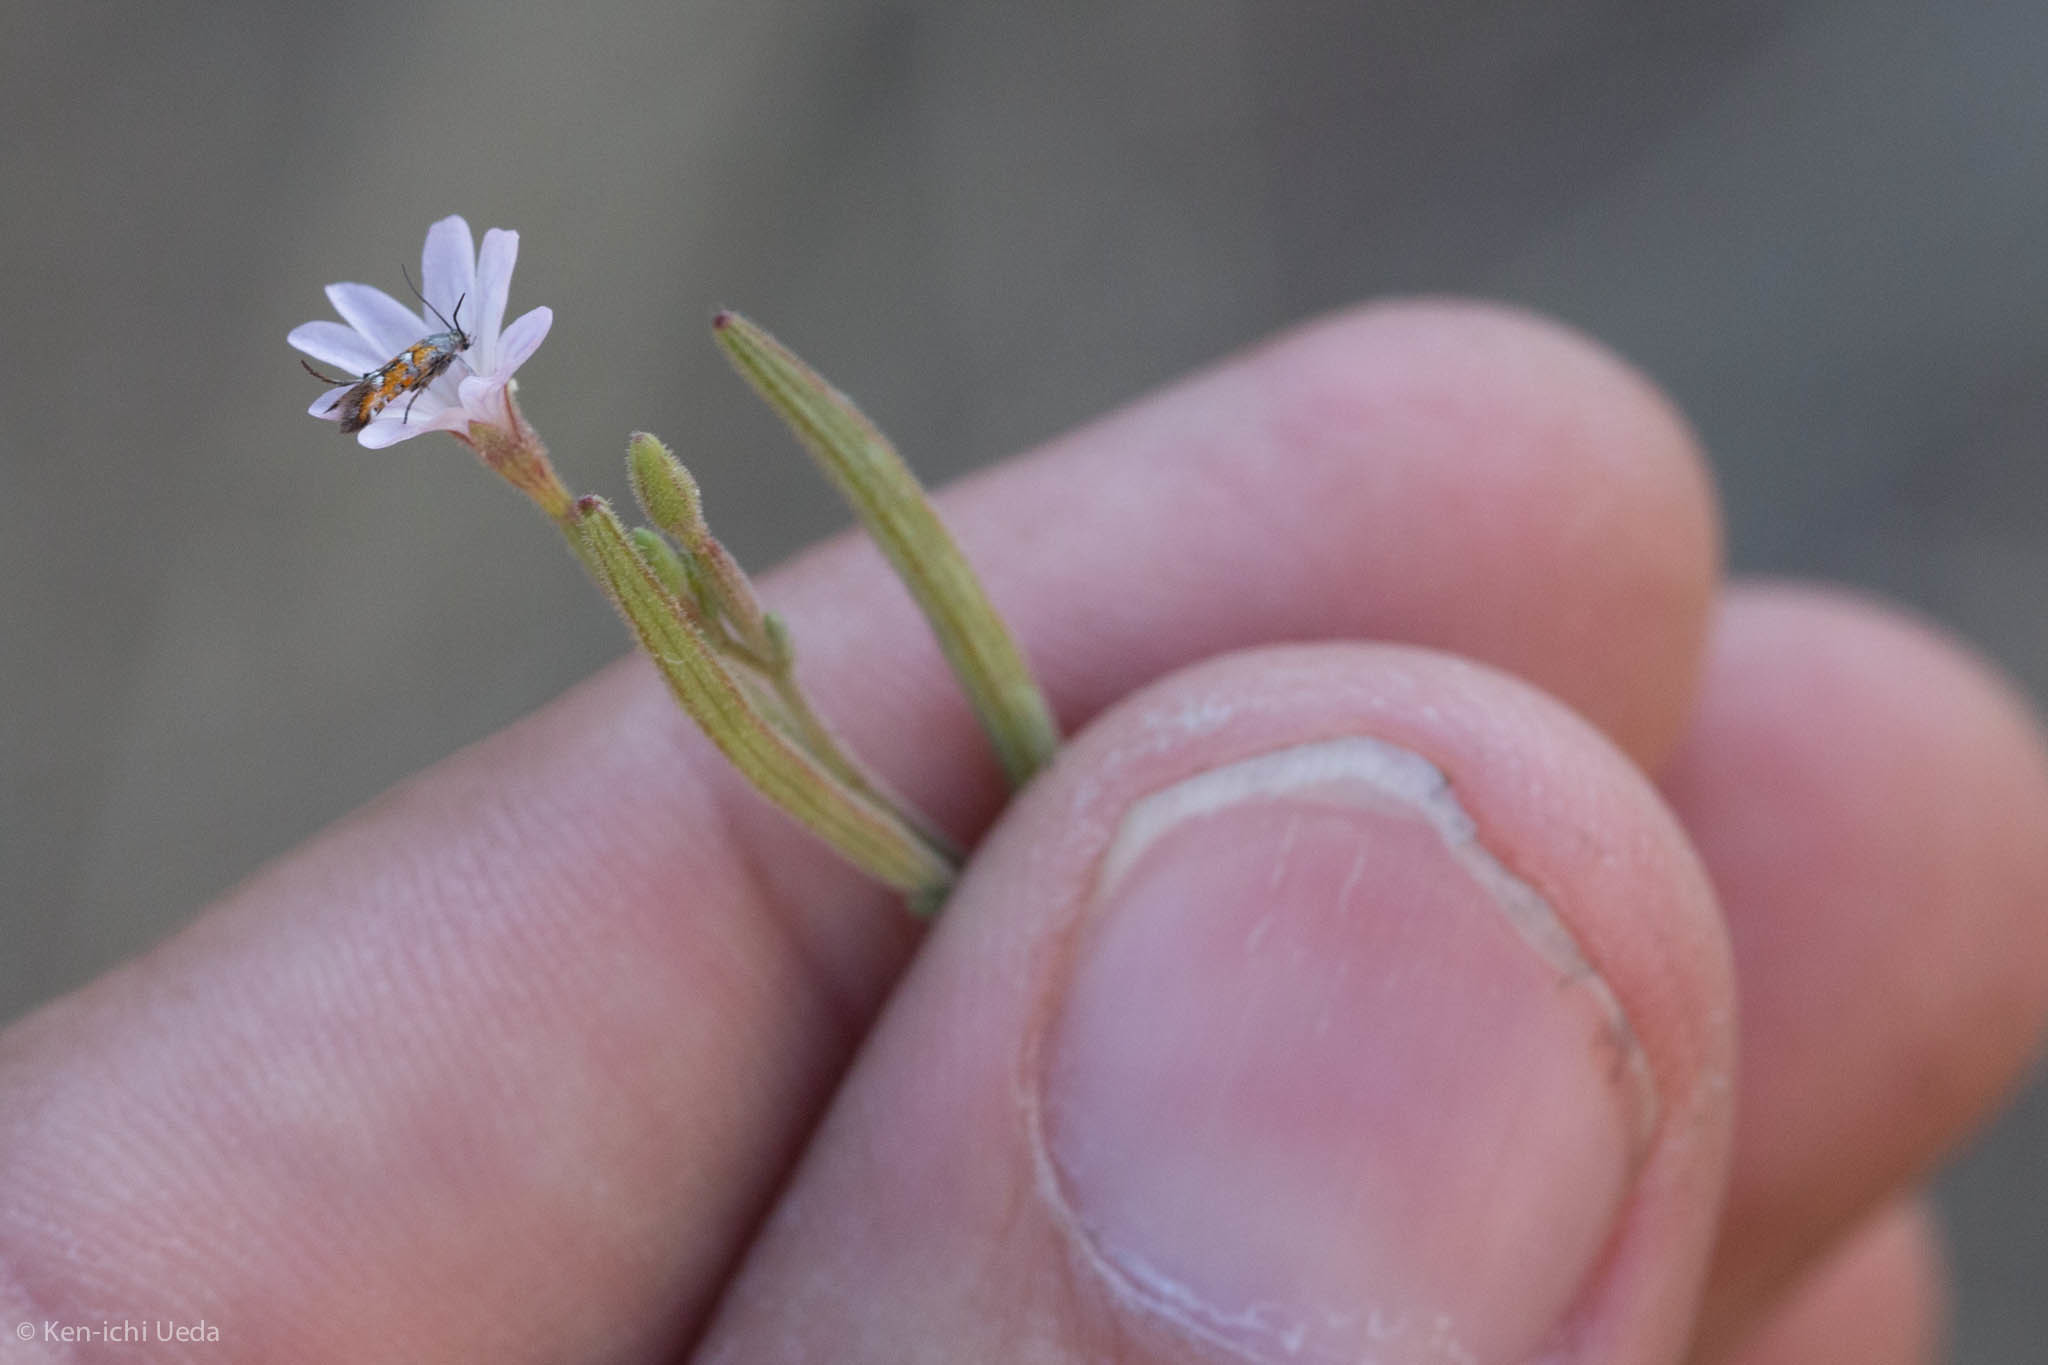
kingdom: Animalia
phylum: Arthropoda
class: Insecta
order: Lepidoptera
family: Heliodinidae
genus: Heliodines
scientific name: Heliodines Aetole extraneella
